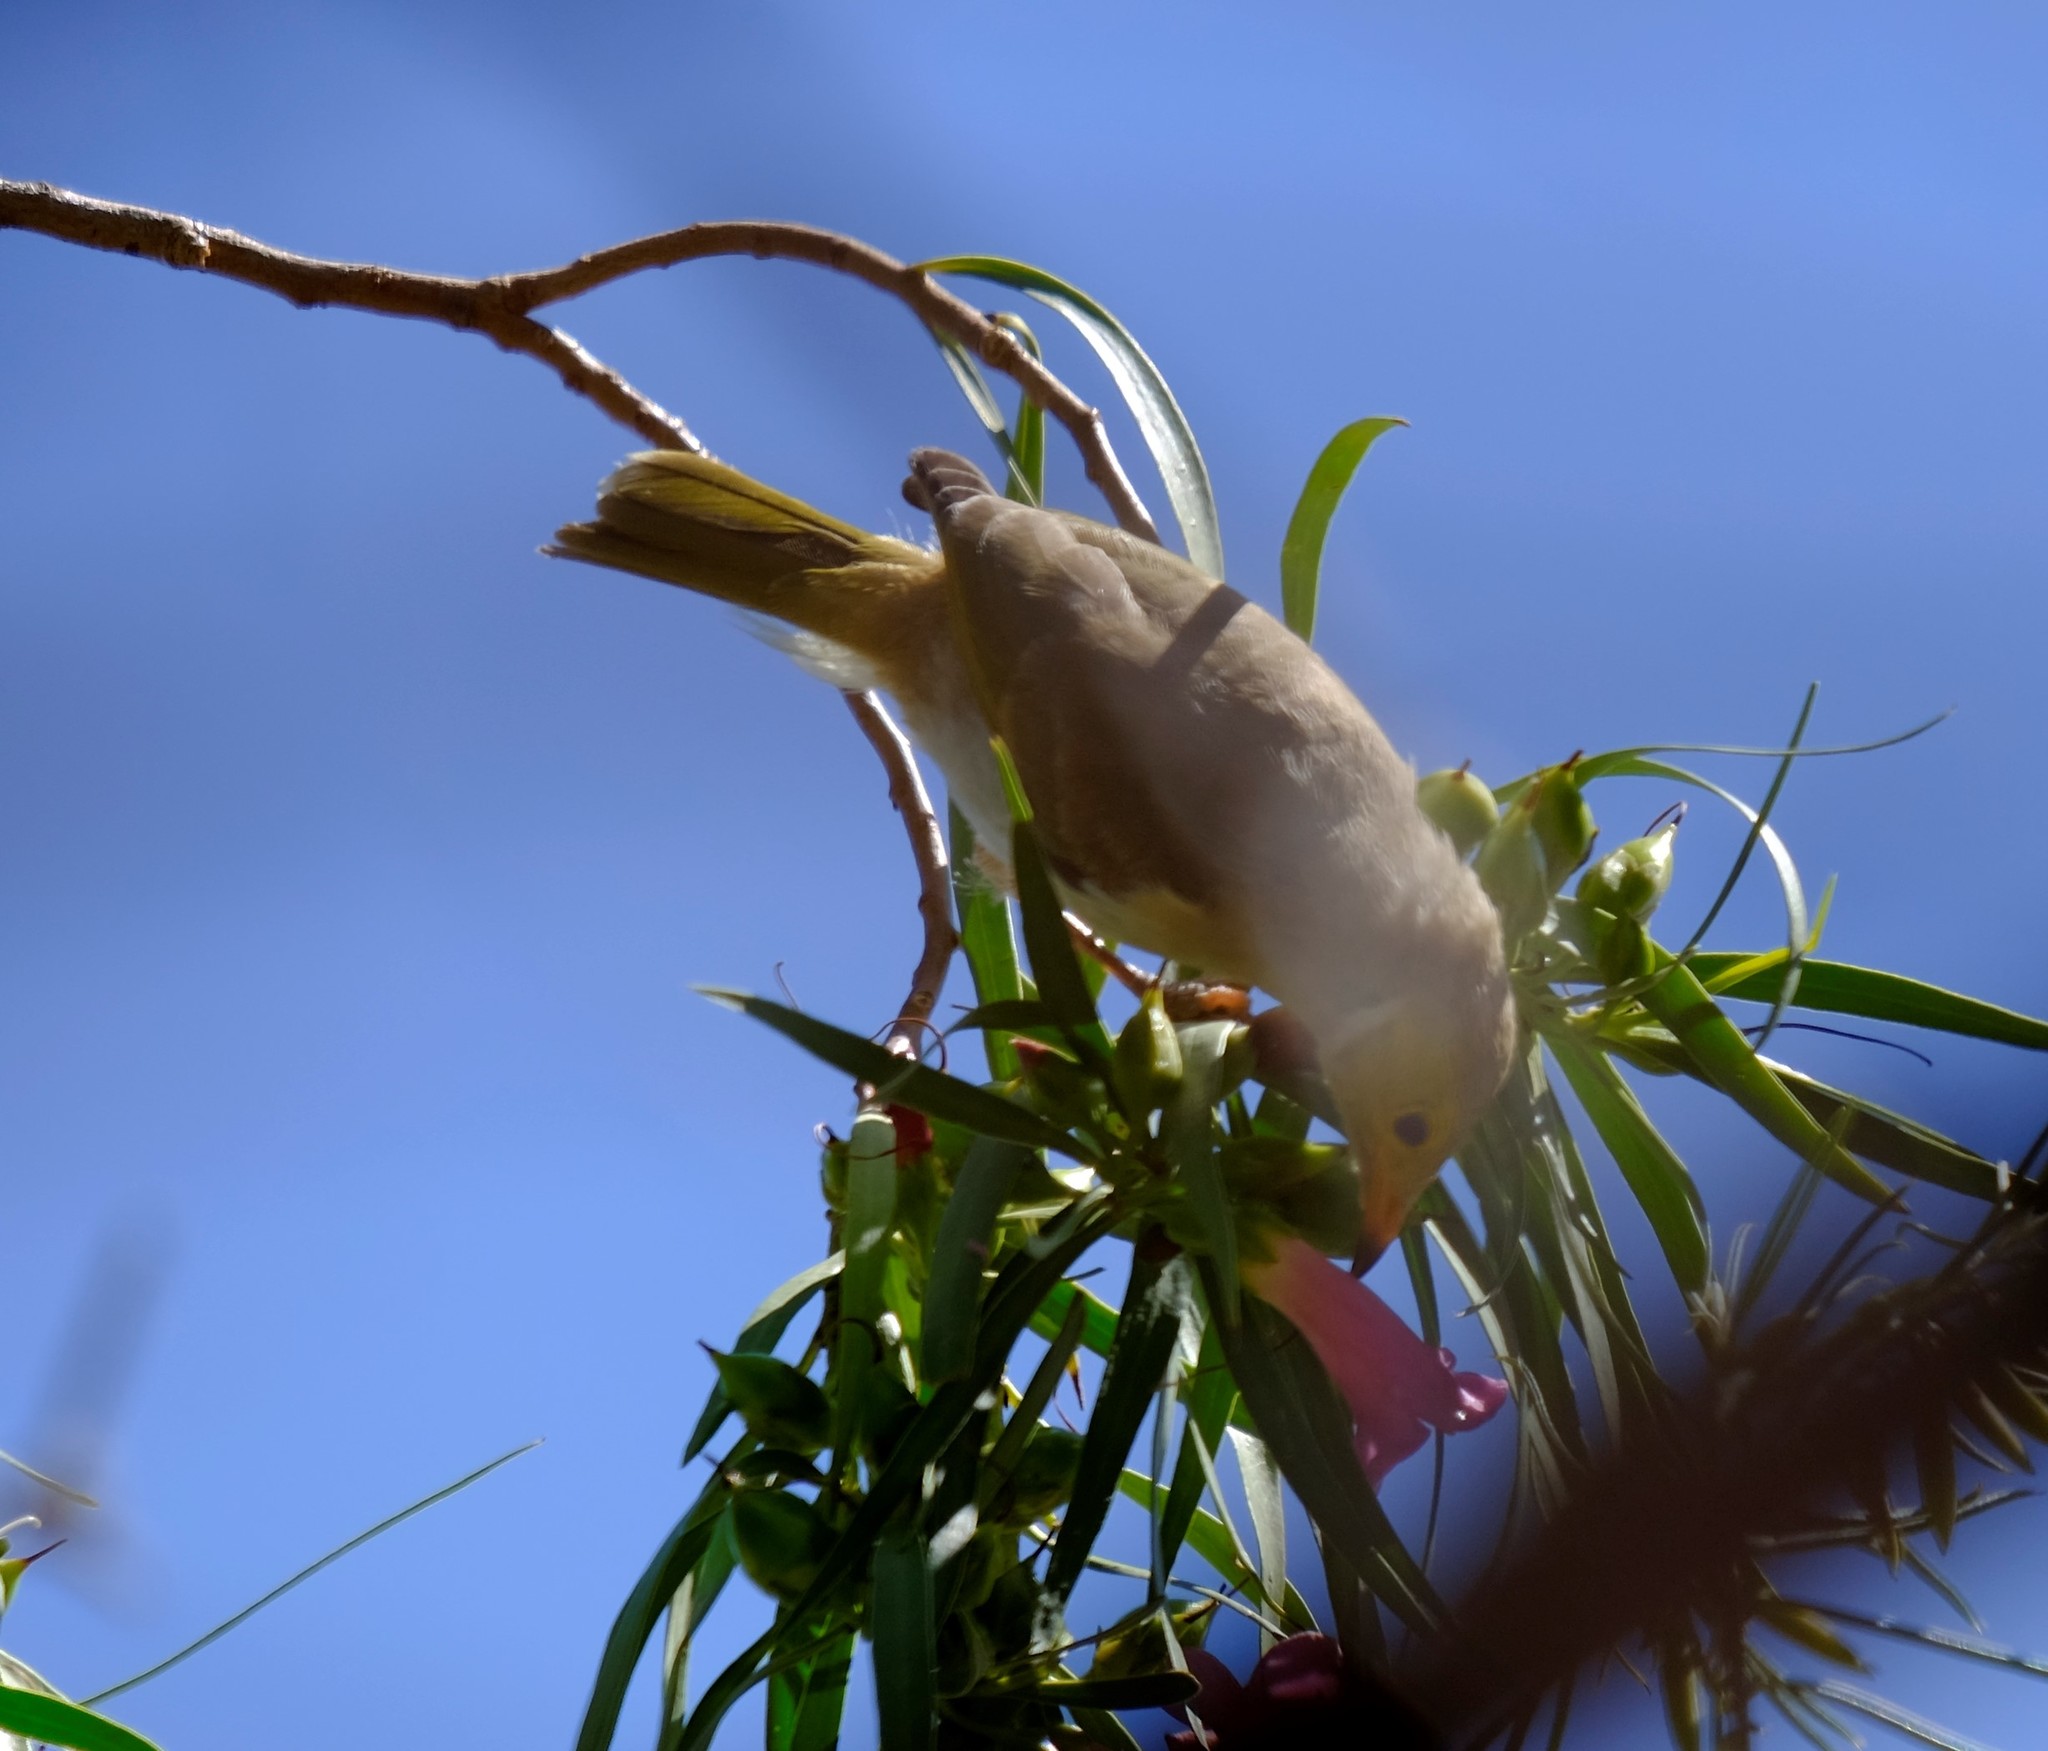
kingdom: Animalia
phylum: Chordata
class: Aves
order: Passeriformes
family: Meliphagidae
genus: Ptilotula
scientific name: Ptilotula penicillata
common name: White-plumed honeyeater
